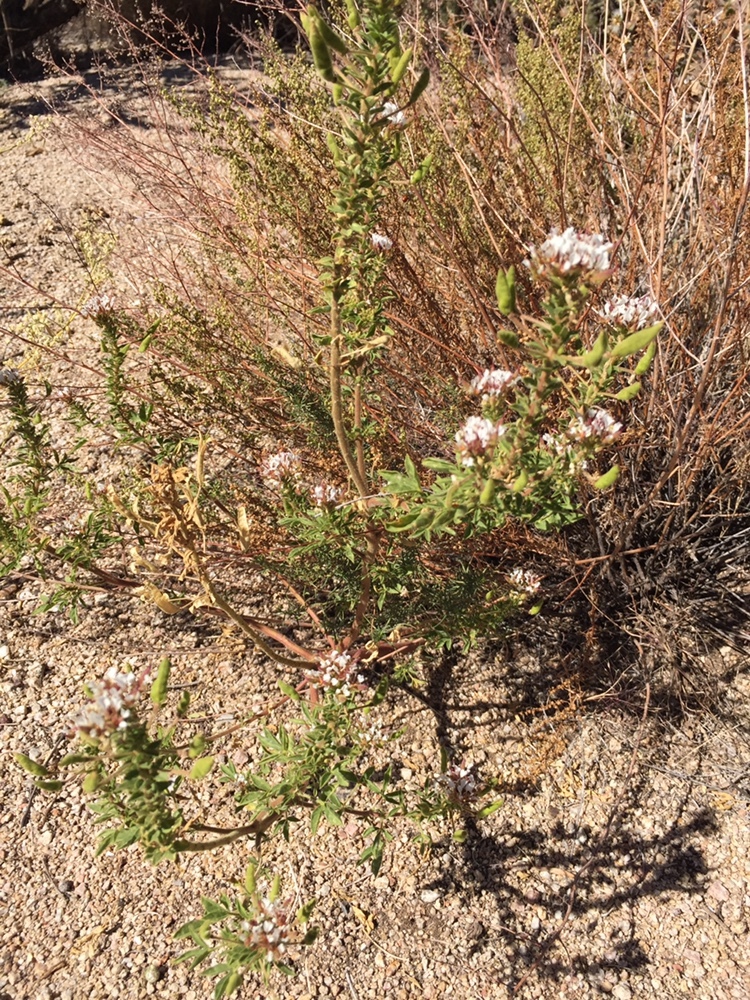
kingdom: Plantae
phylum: Tracheophyta
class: Magnoliopsida
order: Brassicales
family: Cleomaceae
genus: Polanisia
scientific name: Polanisia dodecandra
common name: Clammyweed
